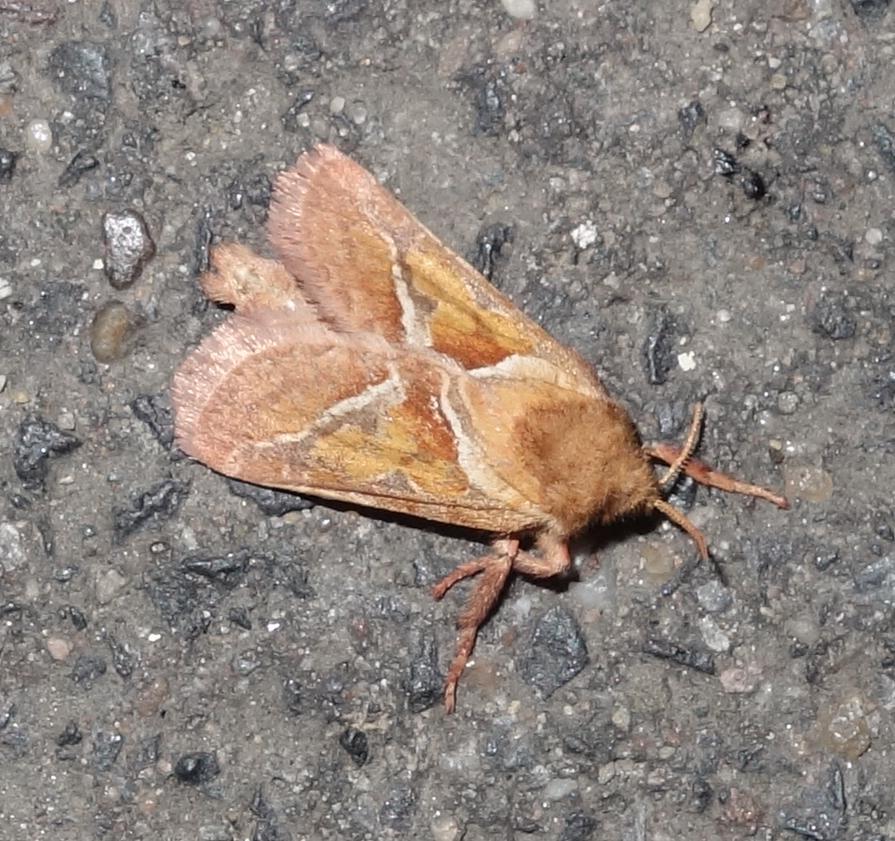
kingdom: Animalia
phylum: Arthropoda
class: Insecta
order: Lepidoptera
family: Hepialidae
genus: Triodia
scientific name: Triodia sylvina
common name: Orange swift
